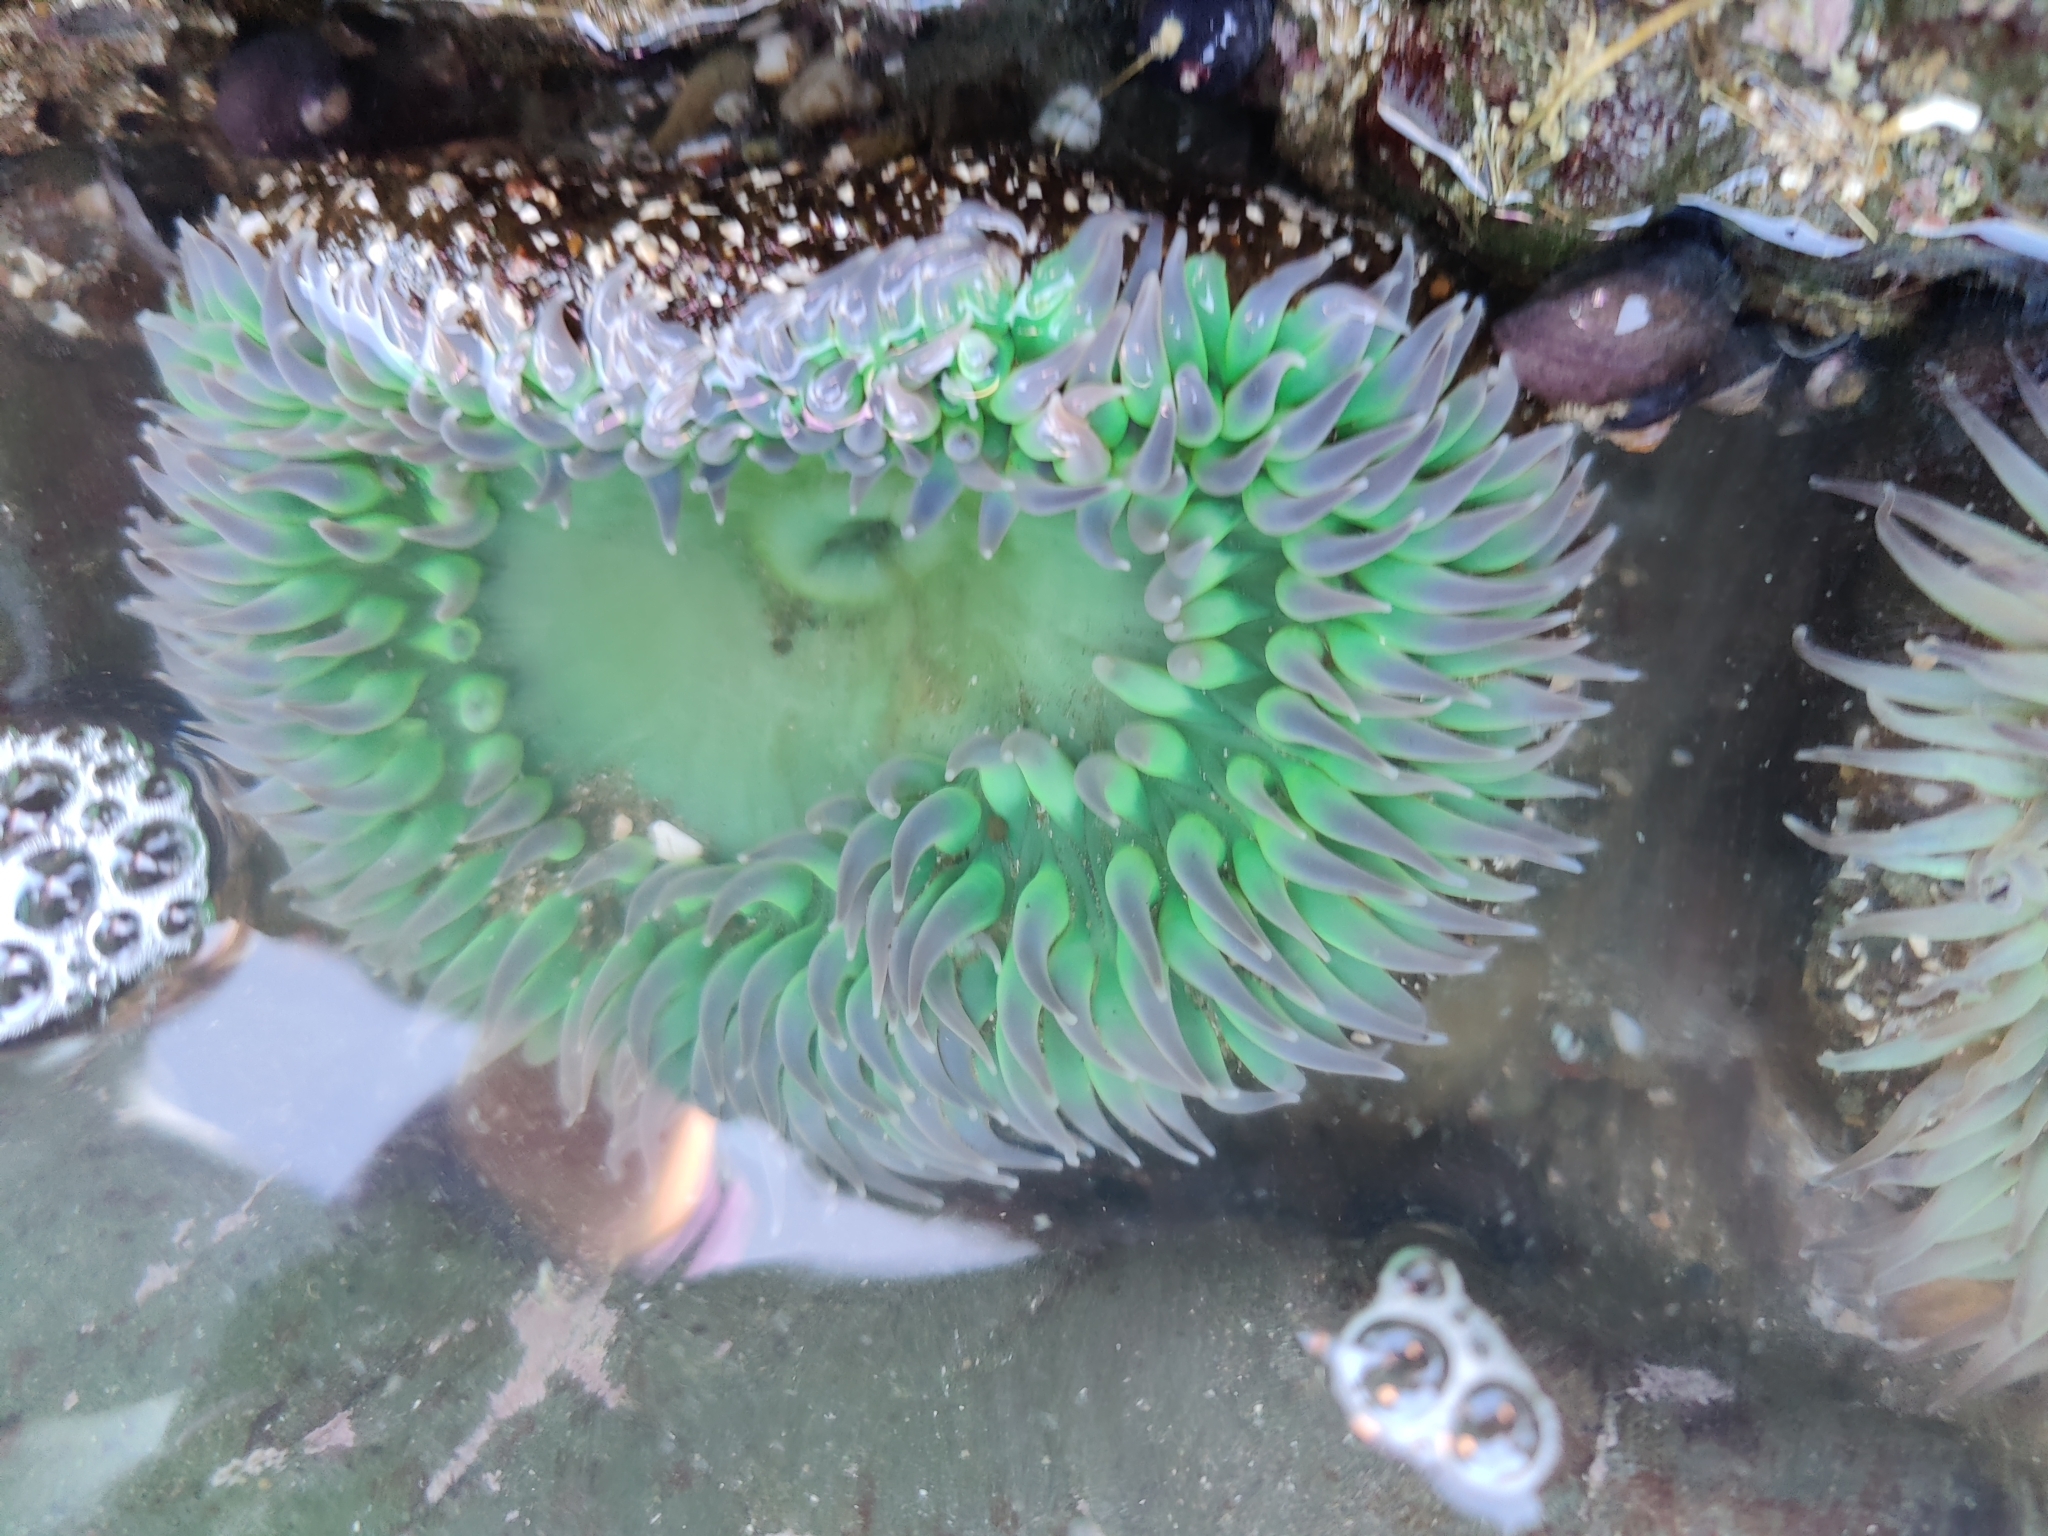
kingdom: Animalia
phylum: Cnidaria
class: Anthozoa
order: Actiniaria
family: Actiniidae
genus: Anthopleura
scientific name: Anthopleura xanthogrammica
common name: Giant green anemone
